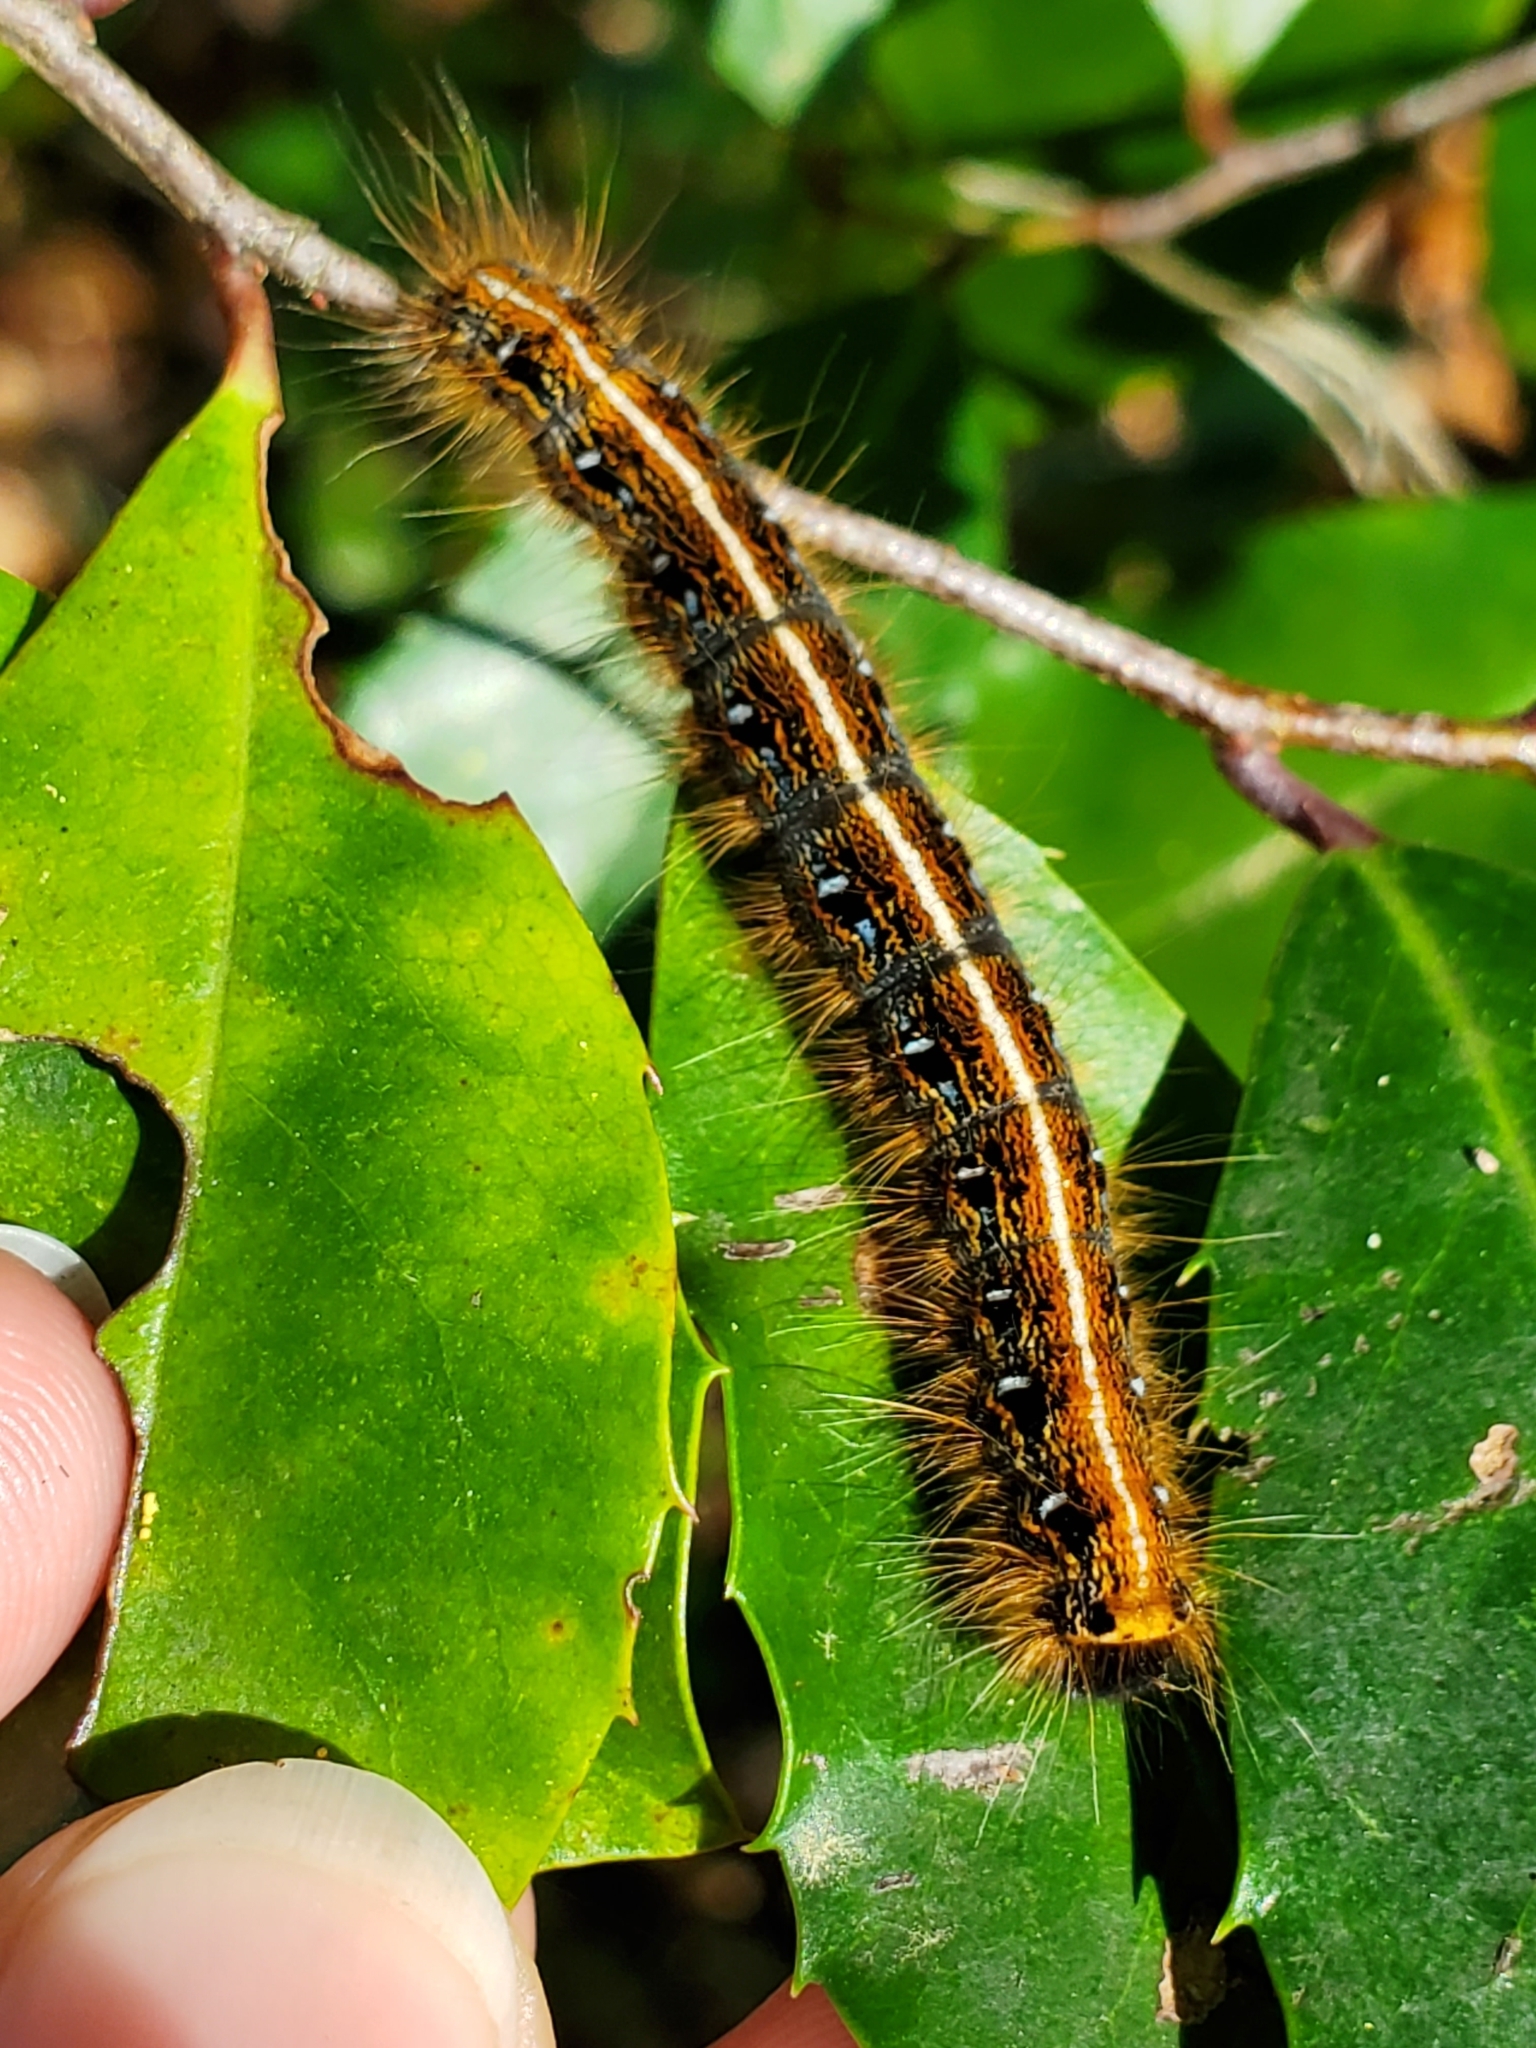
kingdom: Animalia
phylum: Arthropoda
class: Insecta
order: Lepidoptera
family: Lasiocampidae
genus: Malacosoma
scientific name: Malacosoma americana
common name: Eastern tent caterpillar moth
